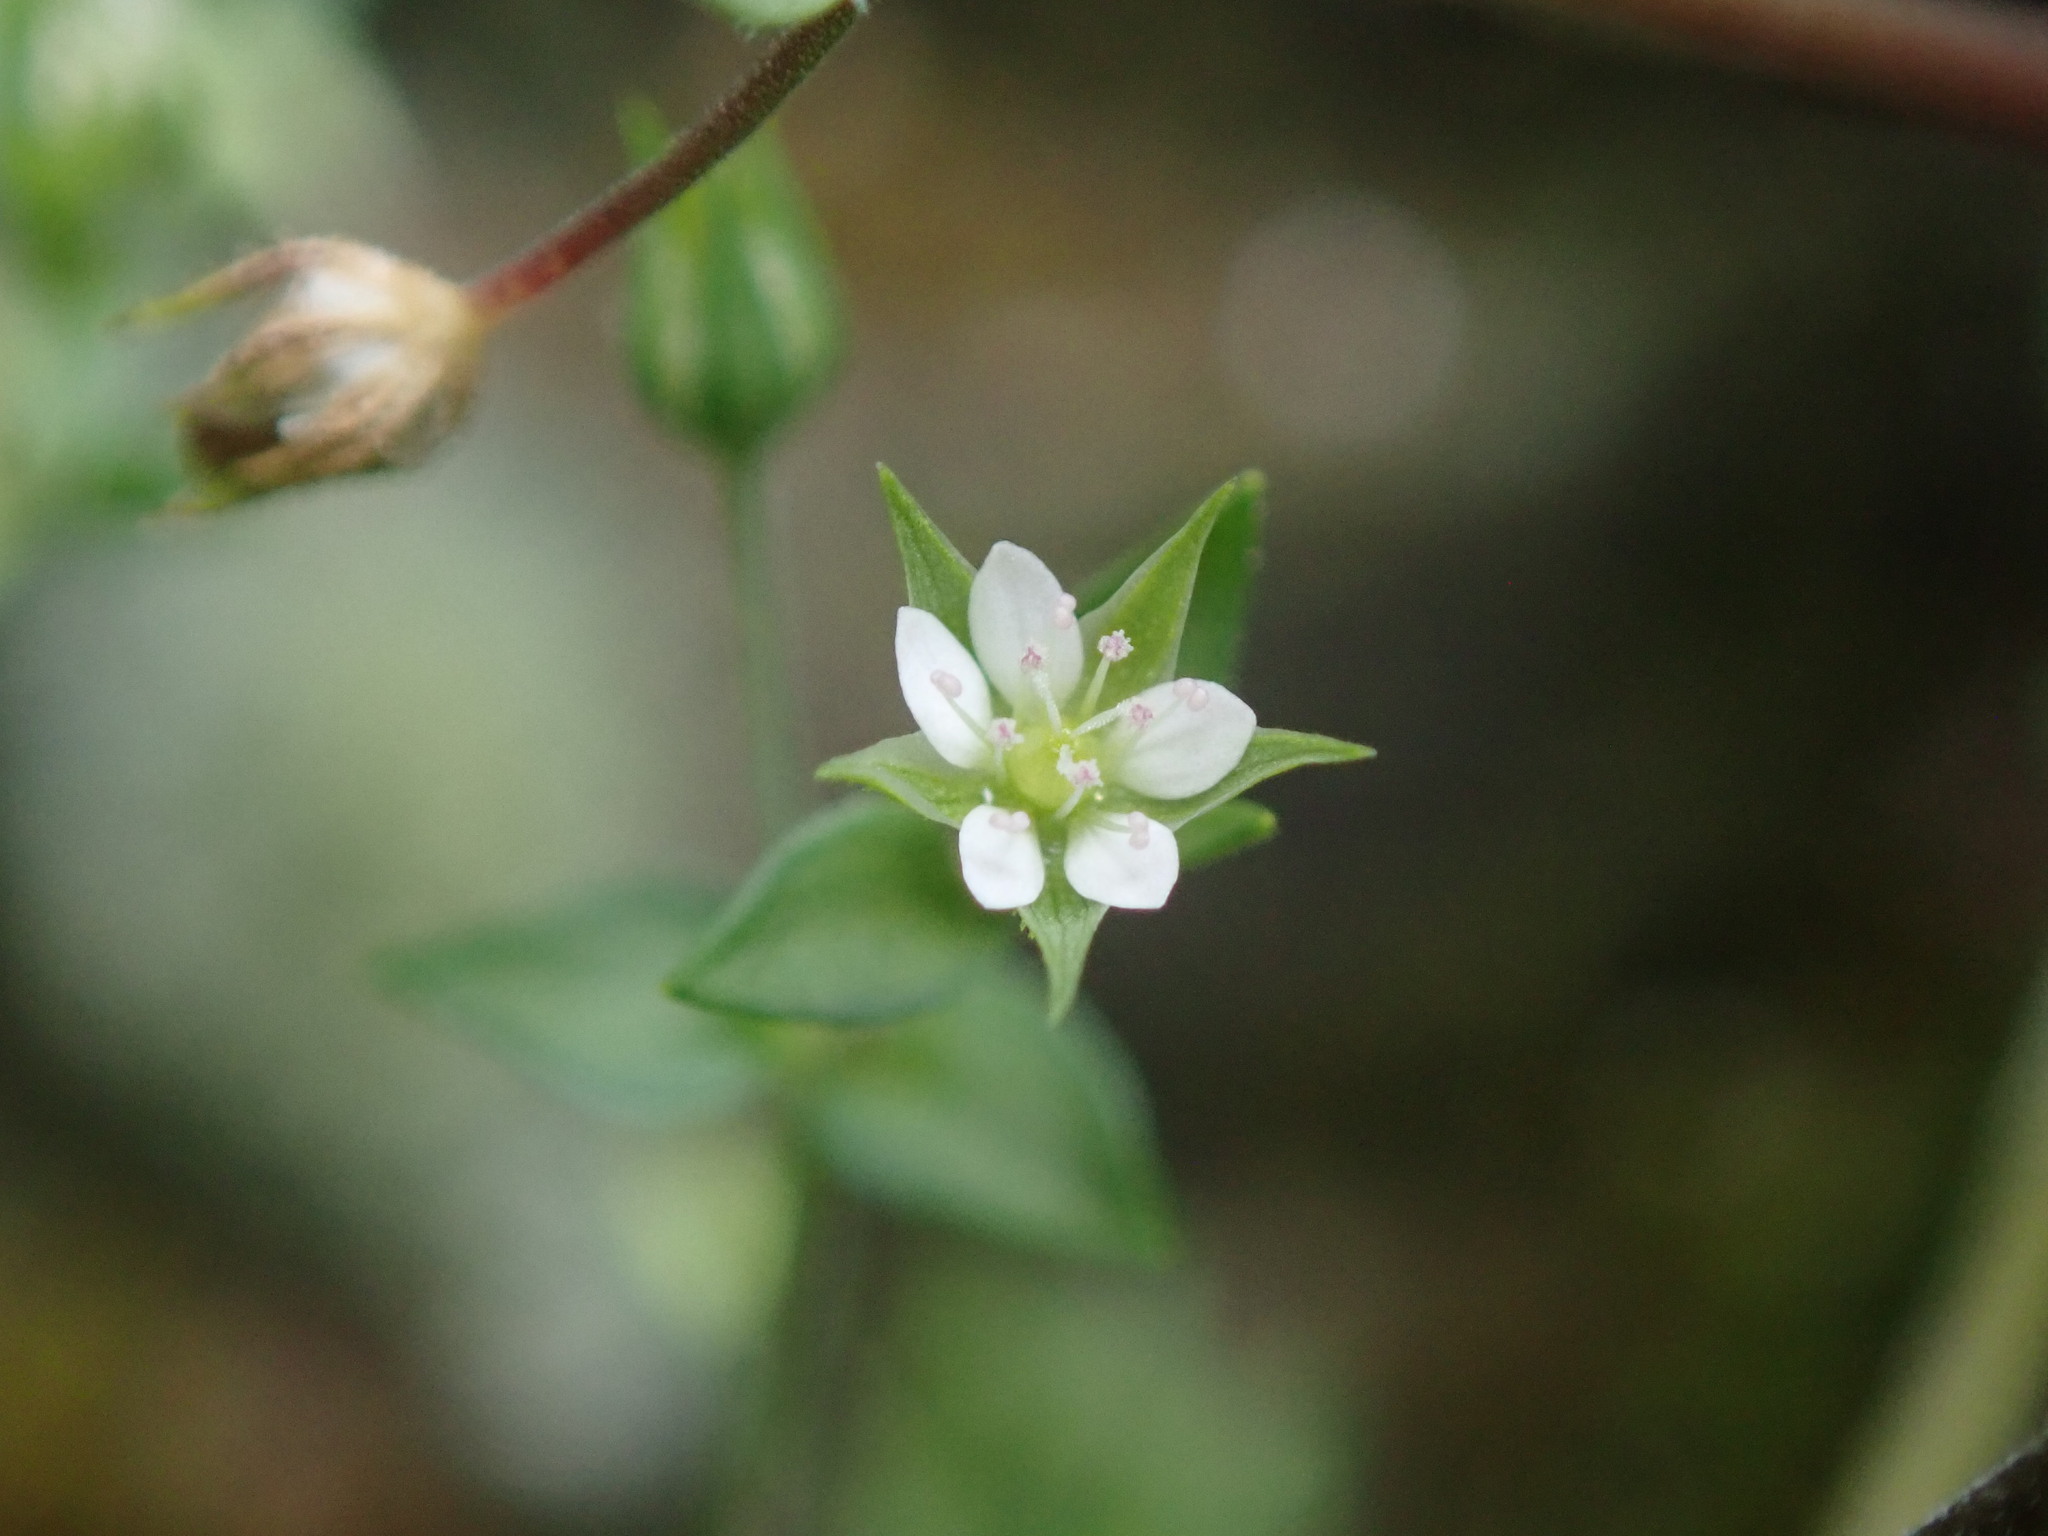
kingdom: Plantae
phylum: Tracheophyta
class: Magnoliopsida
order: Caryophyllales
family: Caryophyllaceae
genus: Arenaria
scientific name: Arenaria serpyllifolia
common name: Thyme-leaved sandwort
